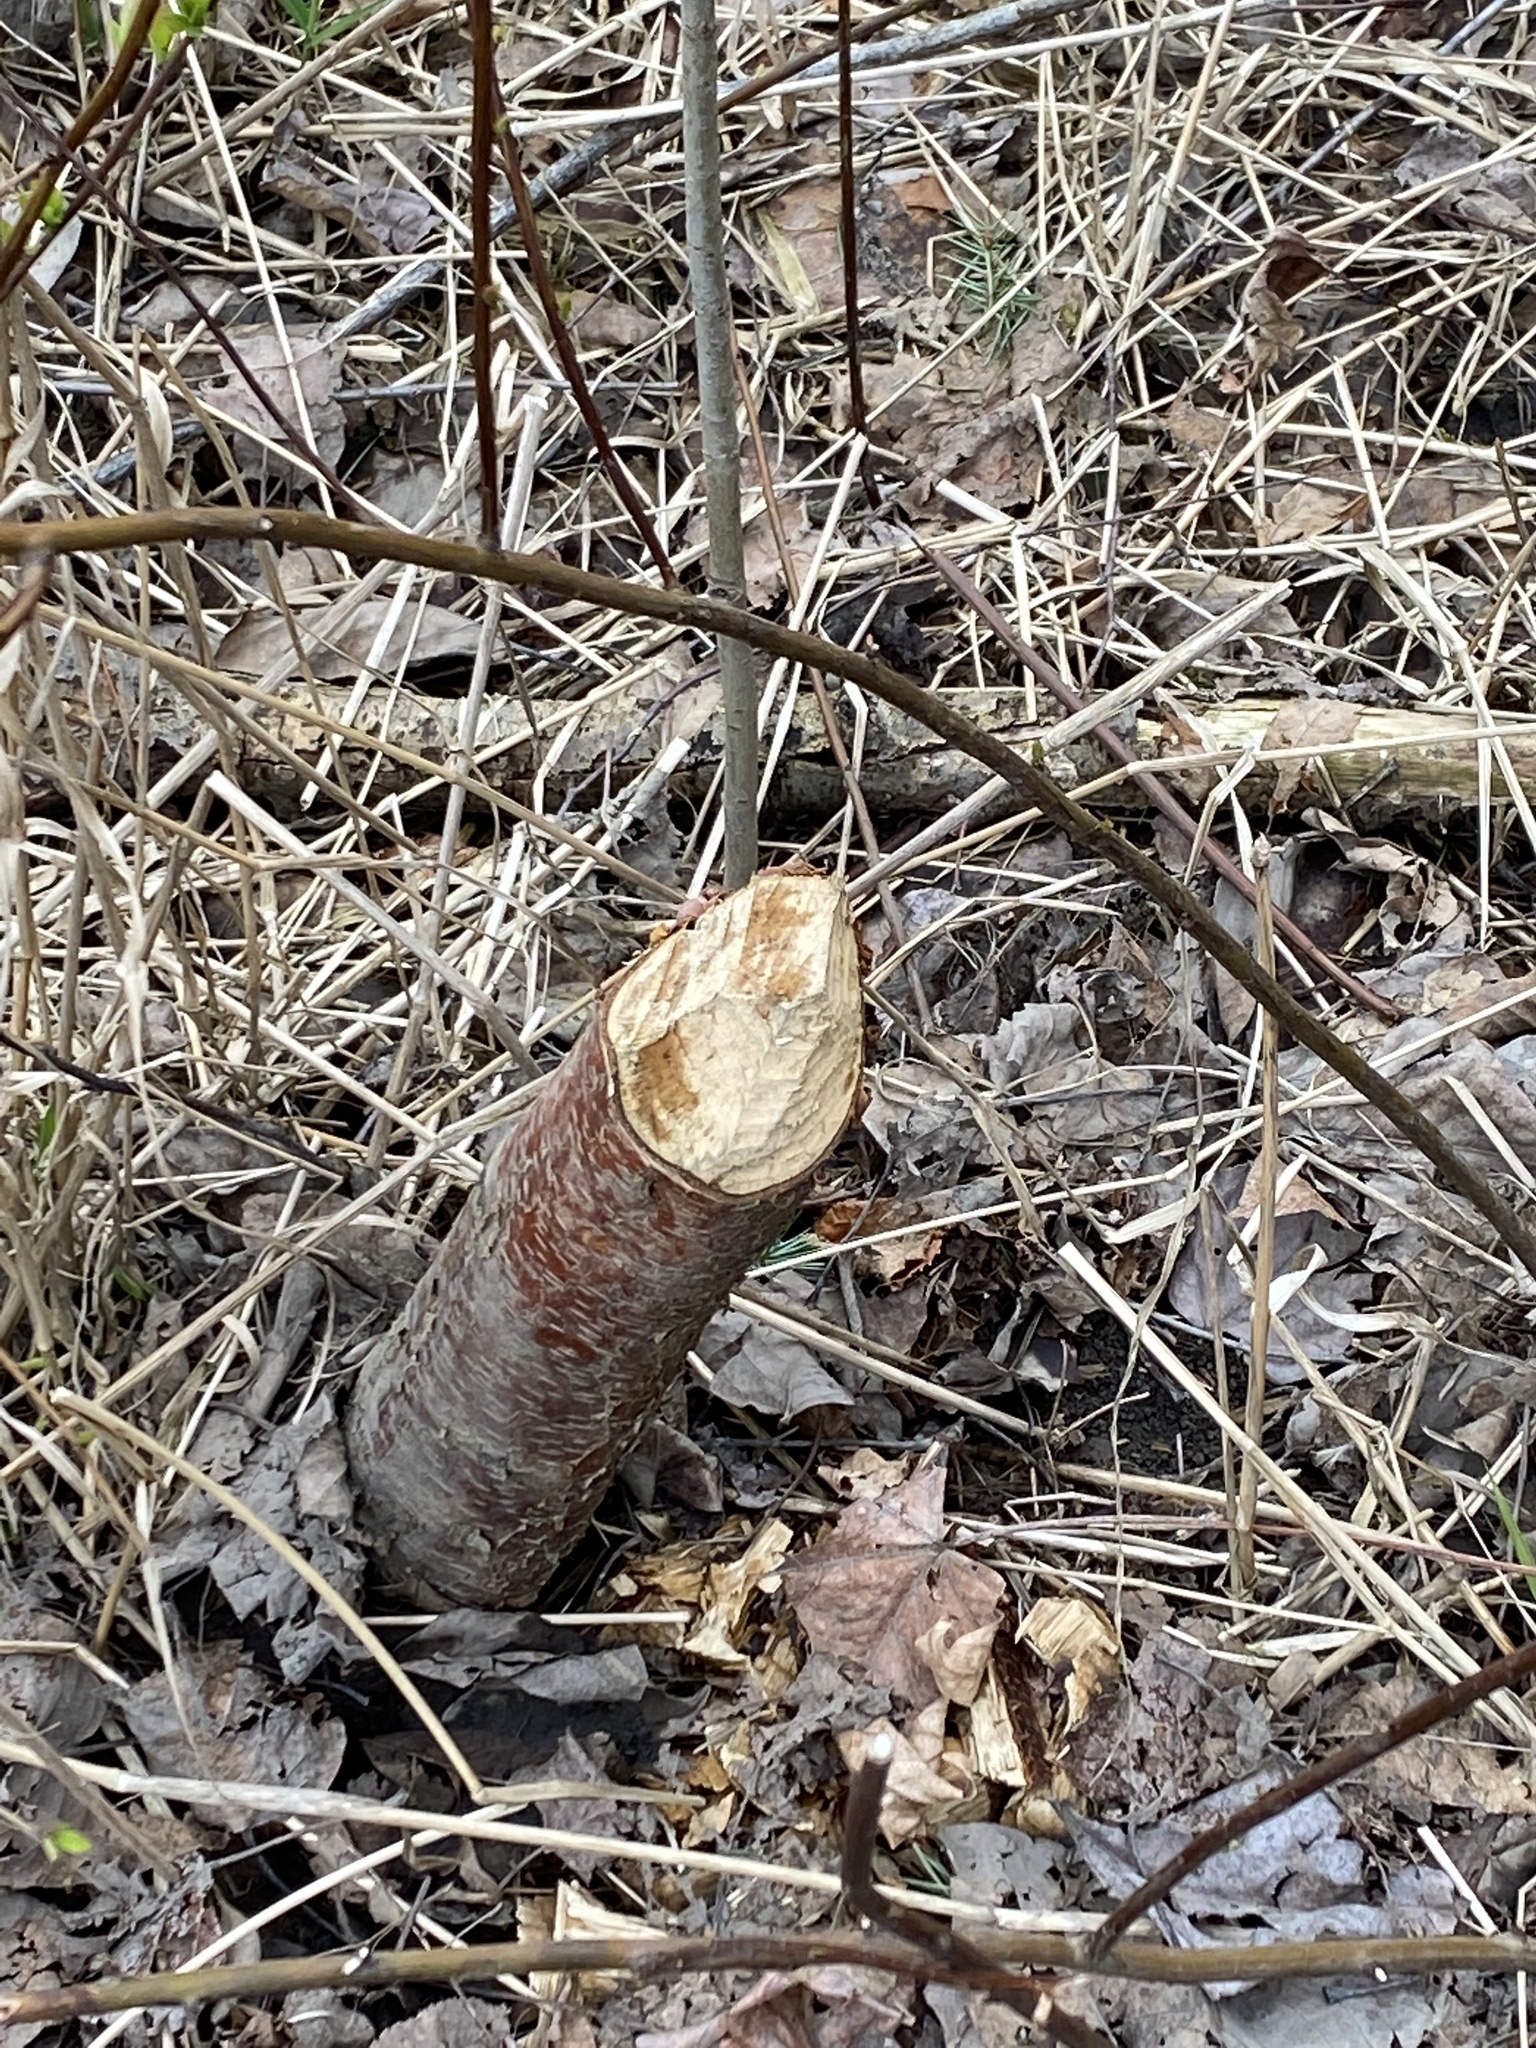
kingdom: Animalia
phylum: Chordata
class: Mammalia
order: Rodentia
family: Castoridae
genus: Castor
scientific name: Castor canadensis
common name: American beaver
